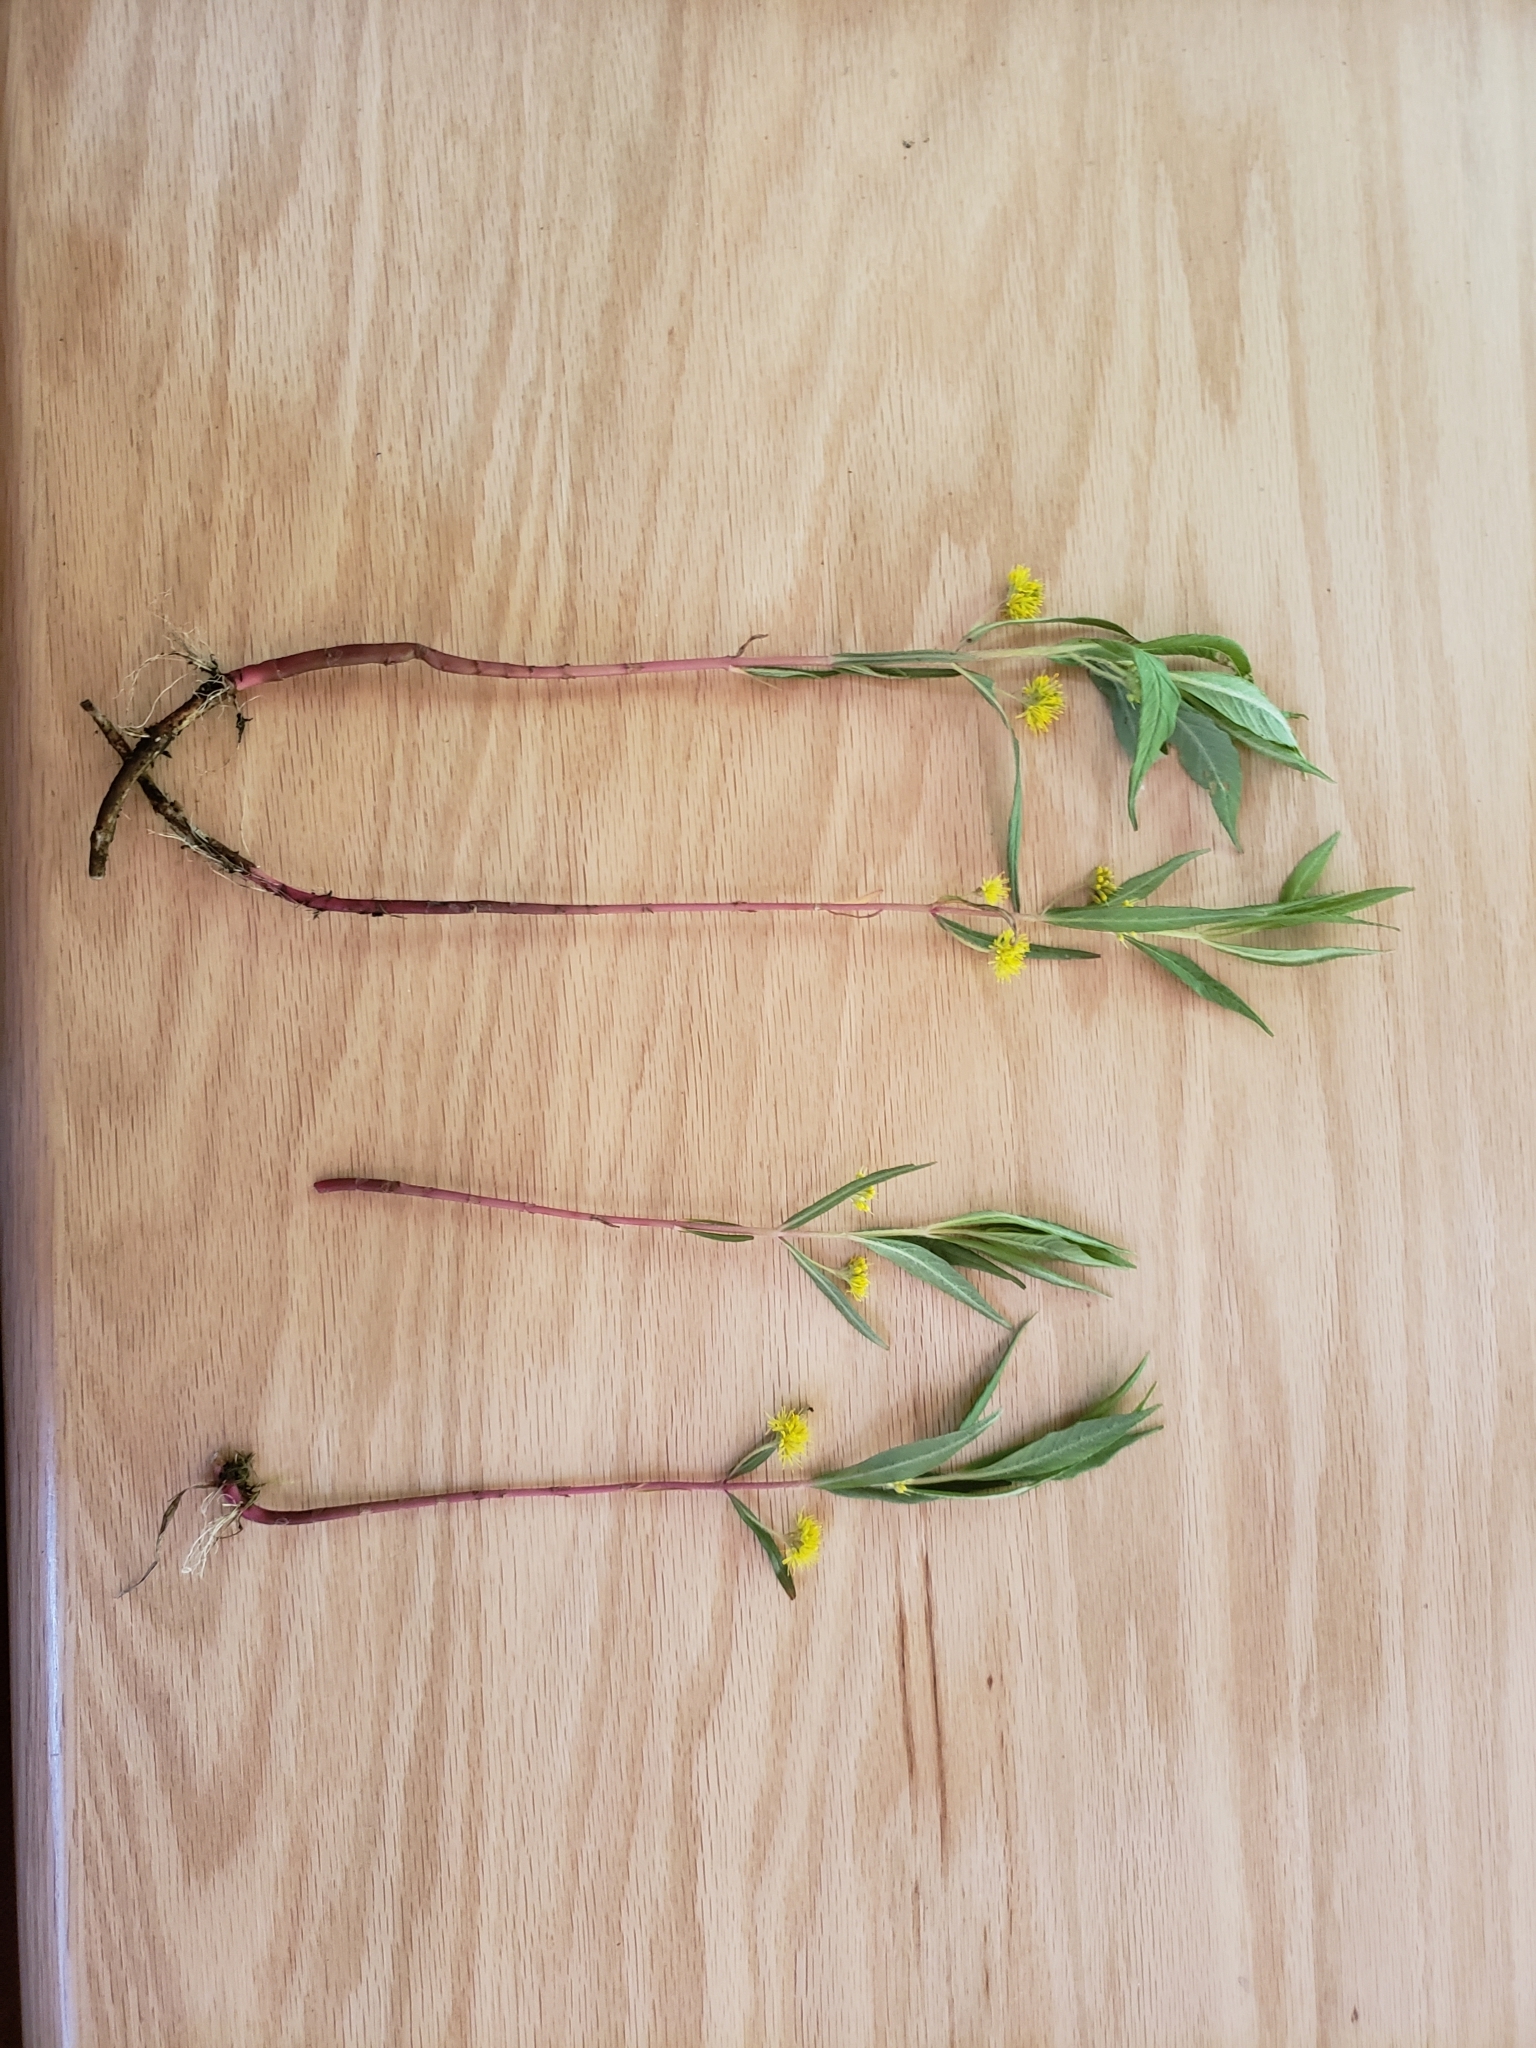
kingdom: Plantae
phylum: Tracheophyta
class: Magnoliopsida
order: Ericales
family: Primulaceae
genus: Lysimachia
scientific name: Lysimachia thyrsiflora
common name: Tufted loosestrife
